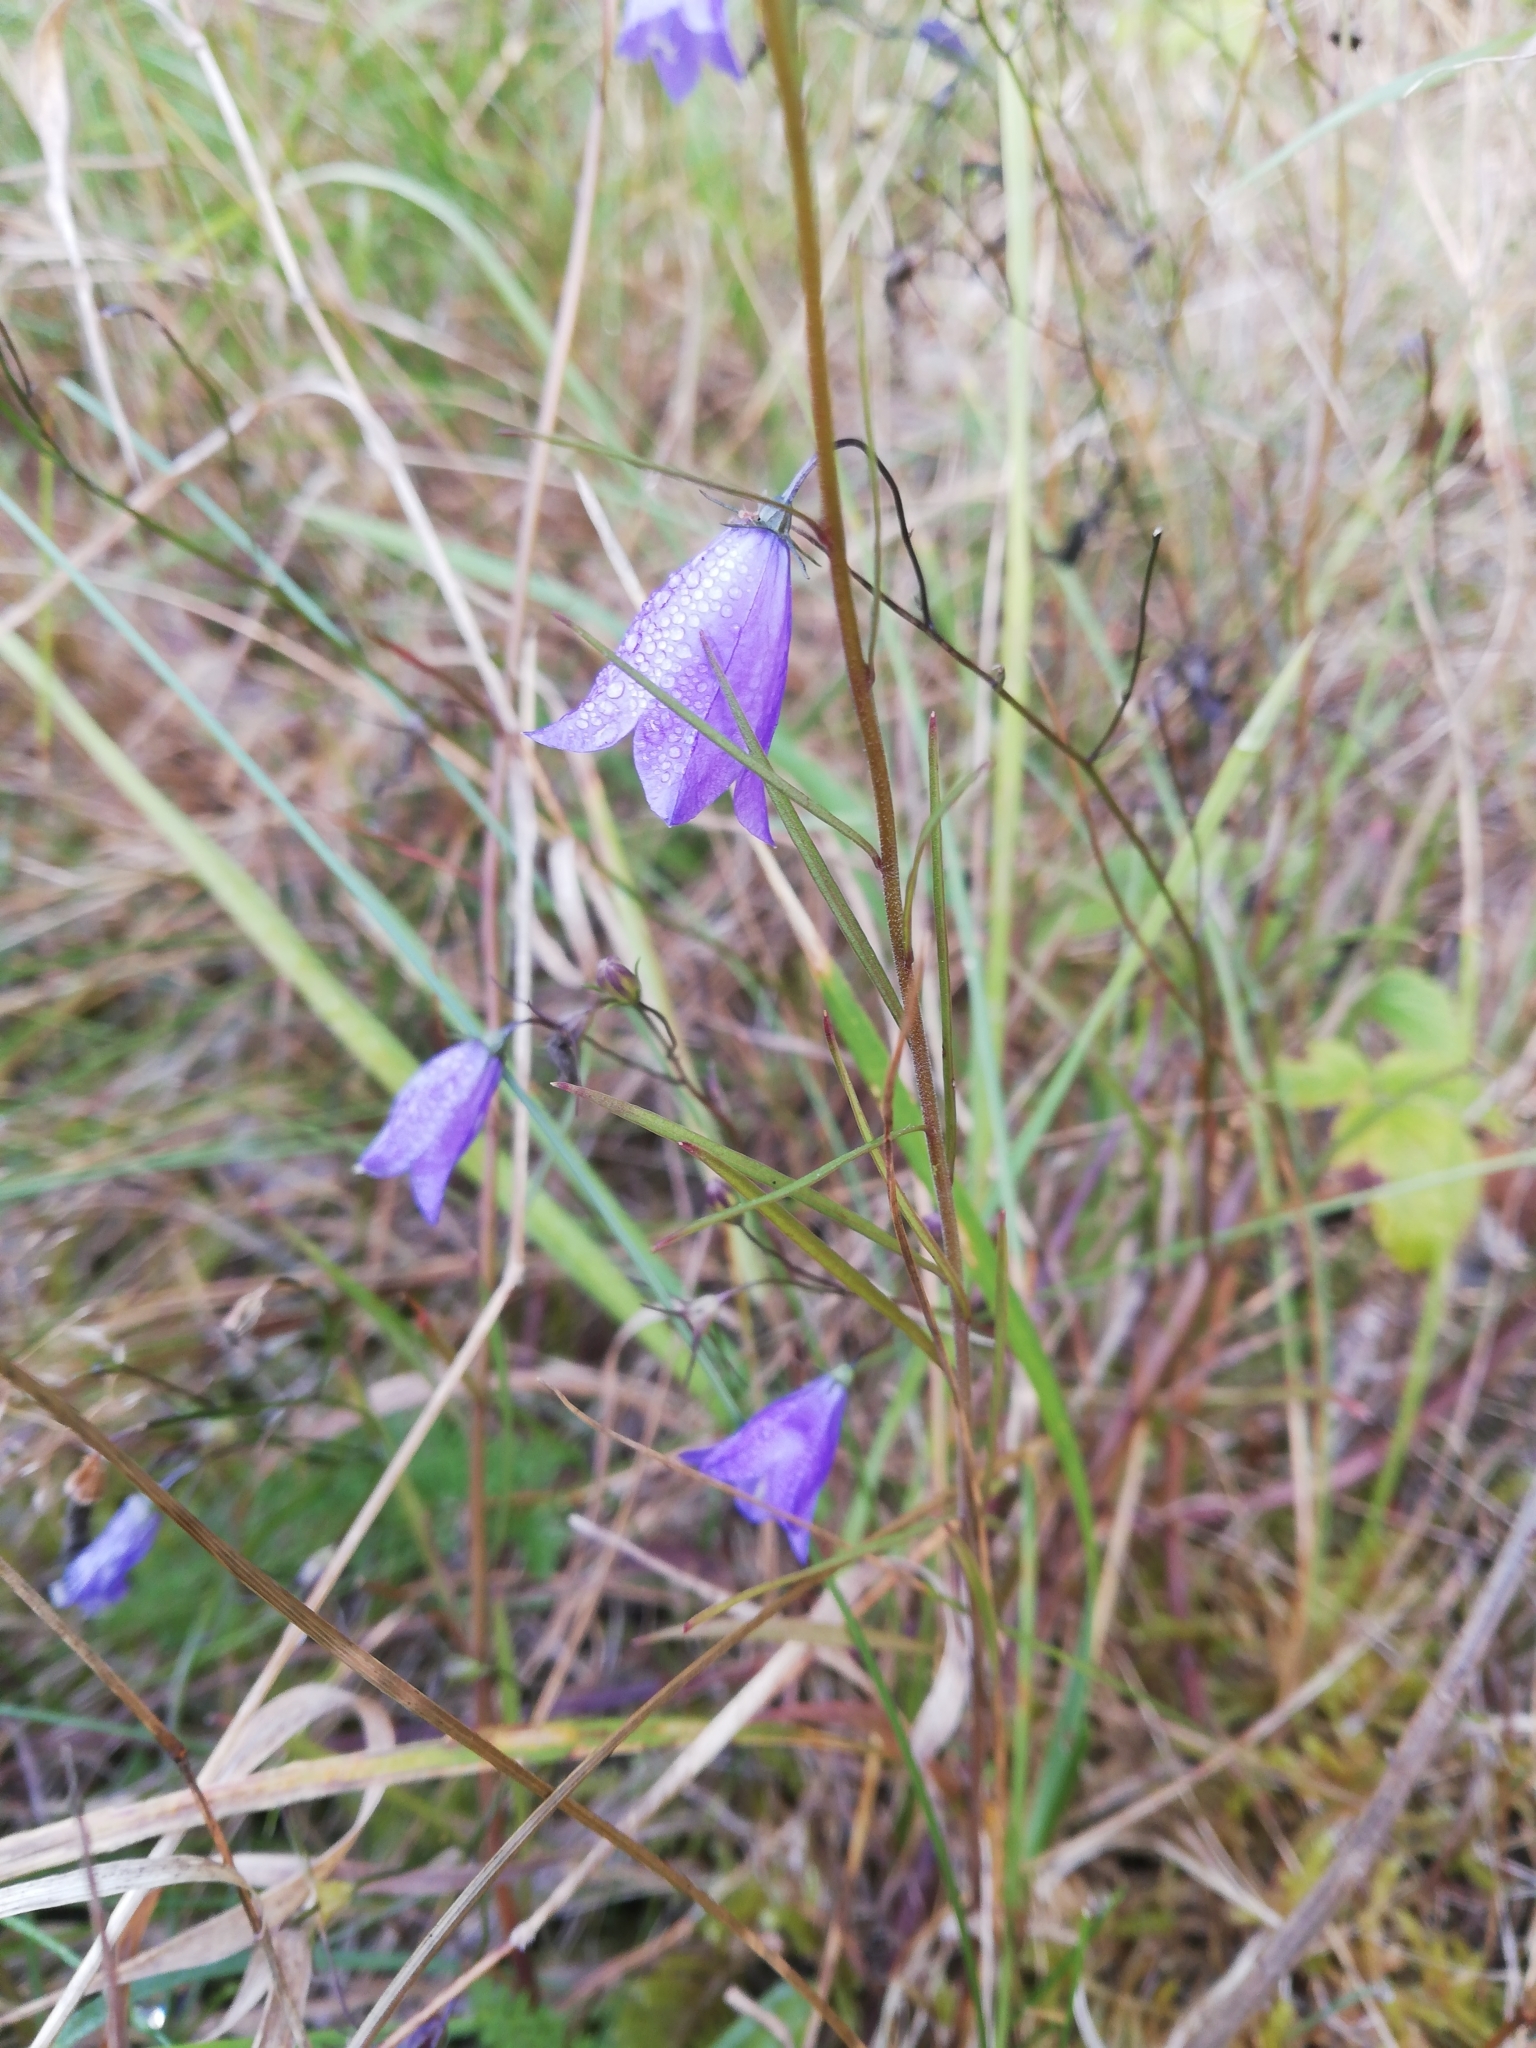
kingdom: Plantae
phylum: Tracheophyta
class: Magnoliopsida
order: Asterales
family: Campanulaceae
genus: Campanula
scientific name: Campanula rotundifolia
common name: Harebell
